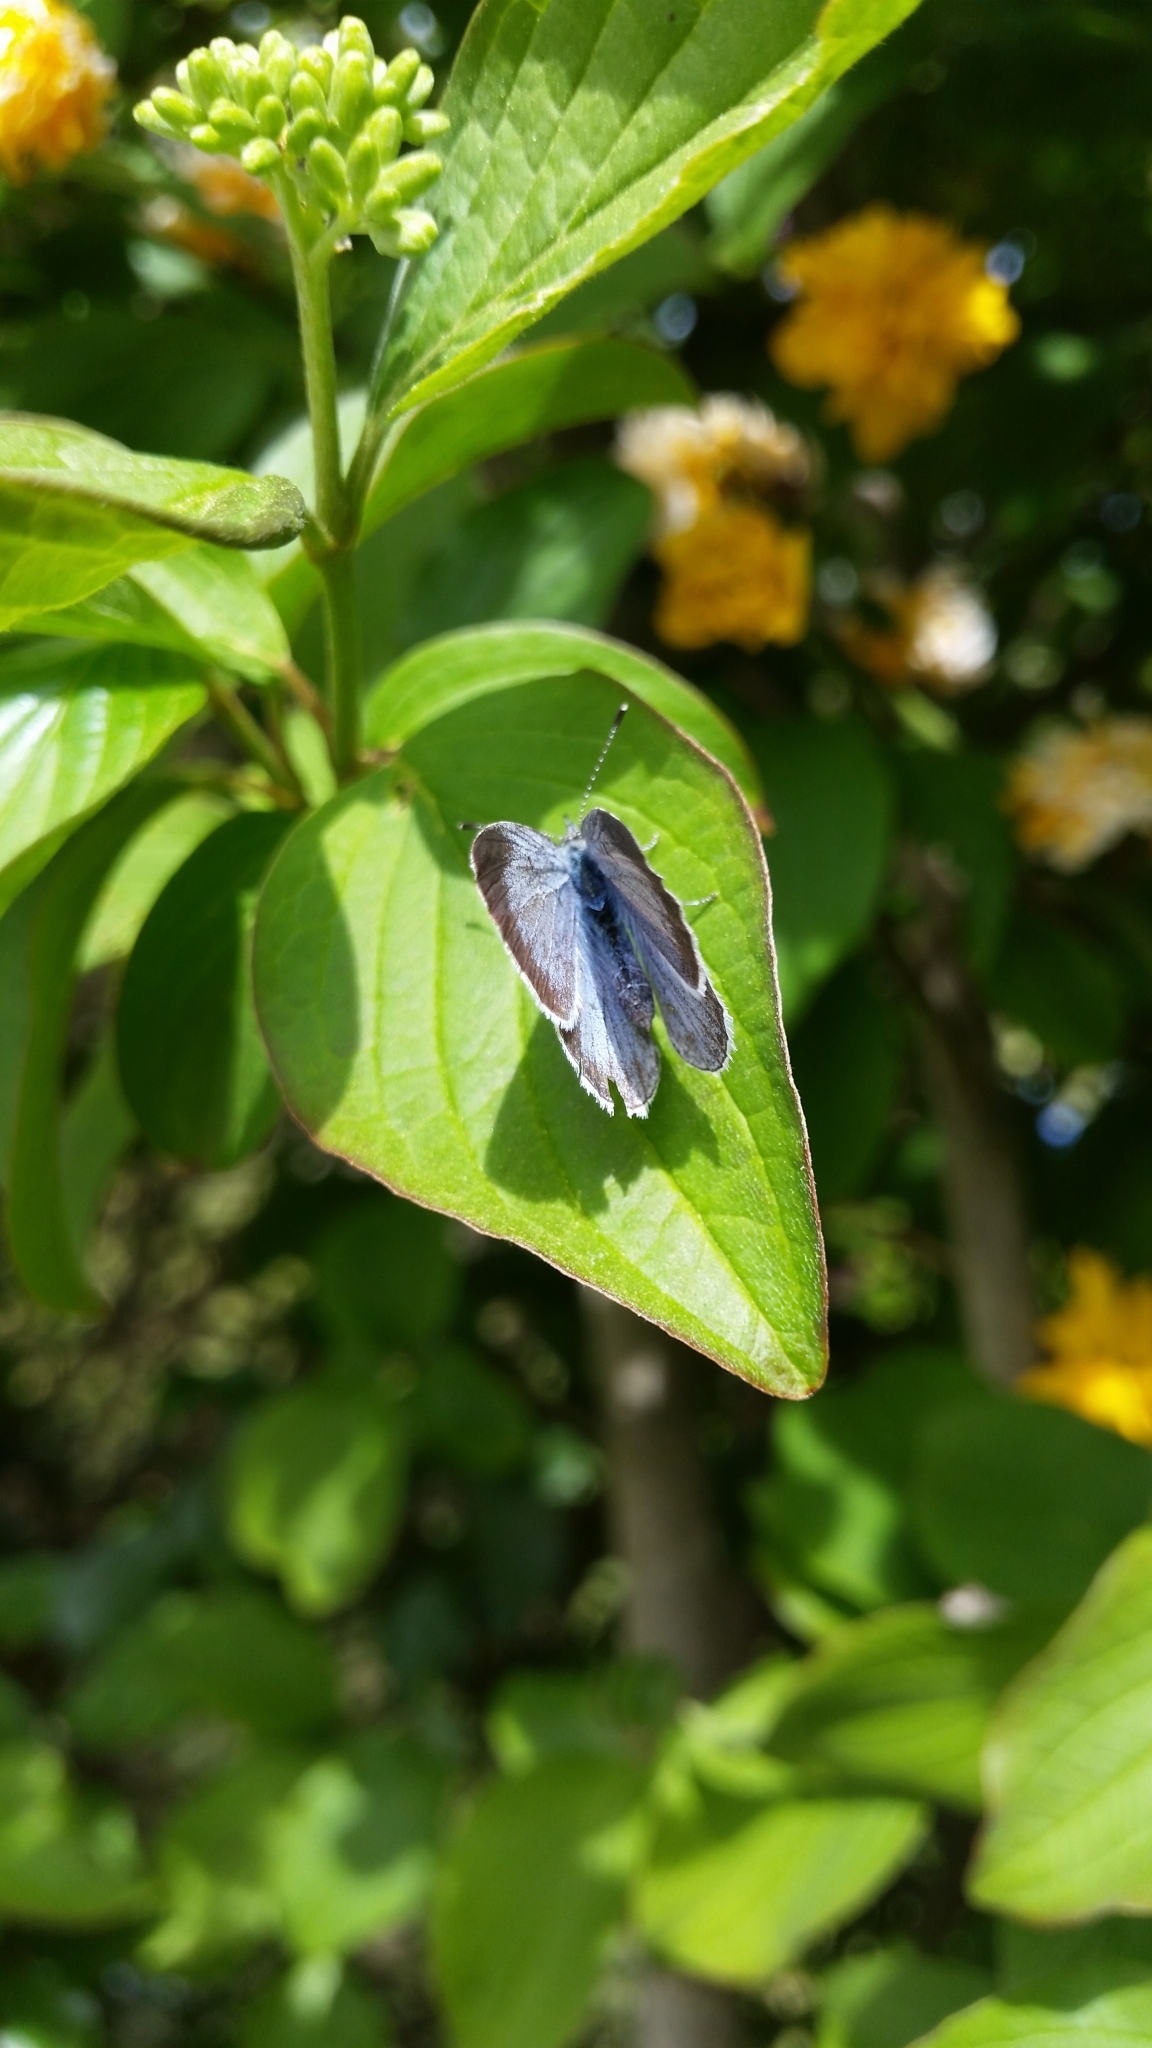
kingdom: Animalia
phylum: Arthropoda
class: Insecta
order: Lepidoptera
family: Lycaenidae
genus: Celastrina
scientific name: Celastrina argiolus
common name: Holly blue
